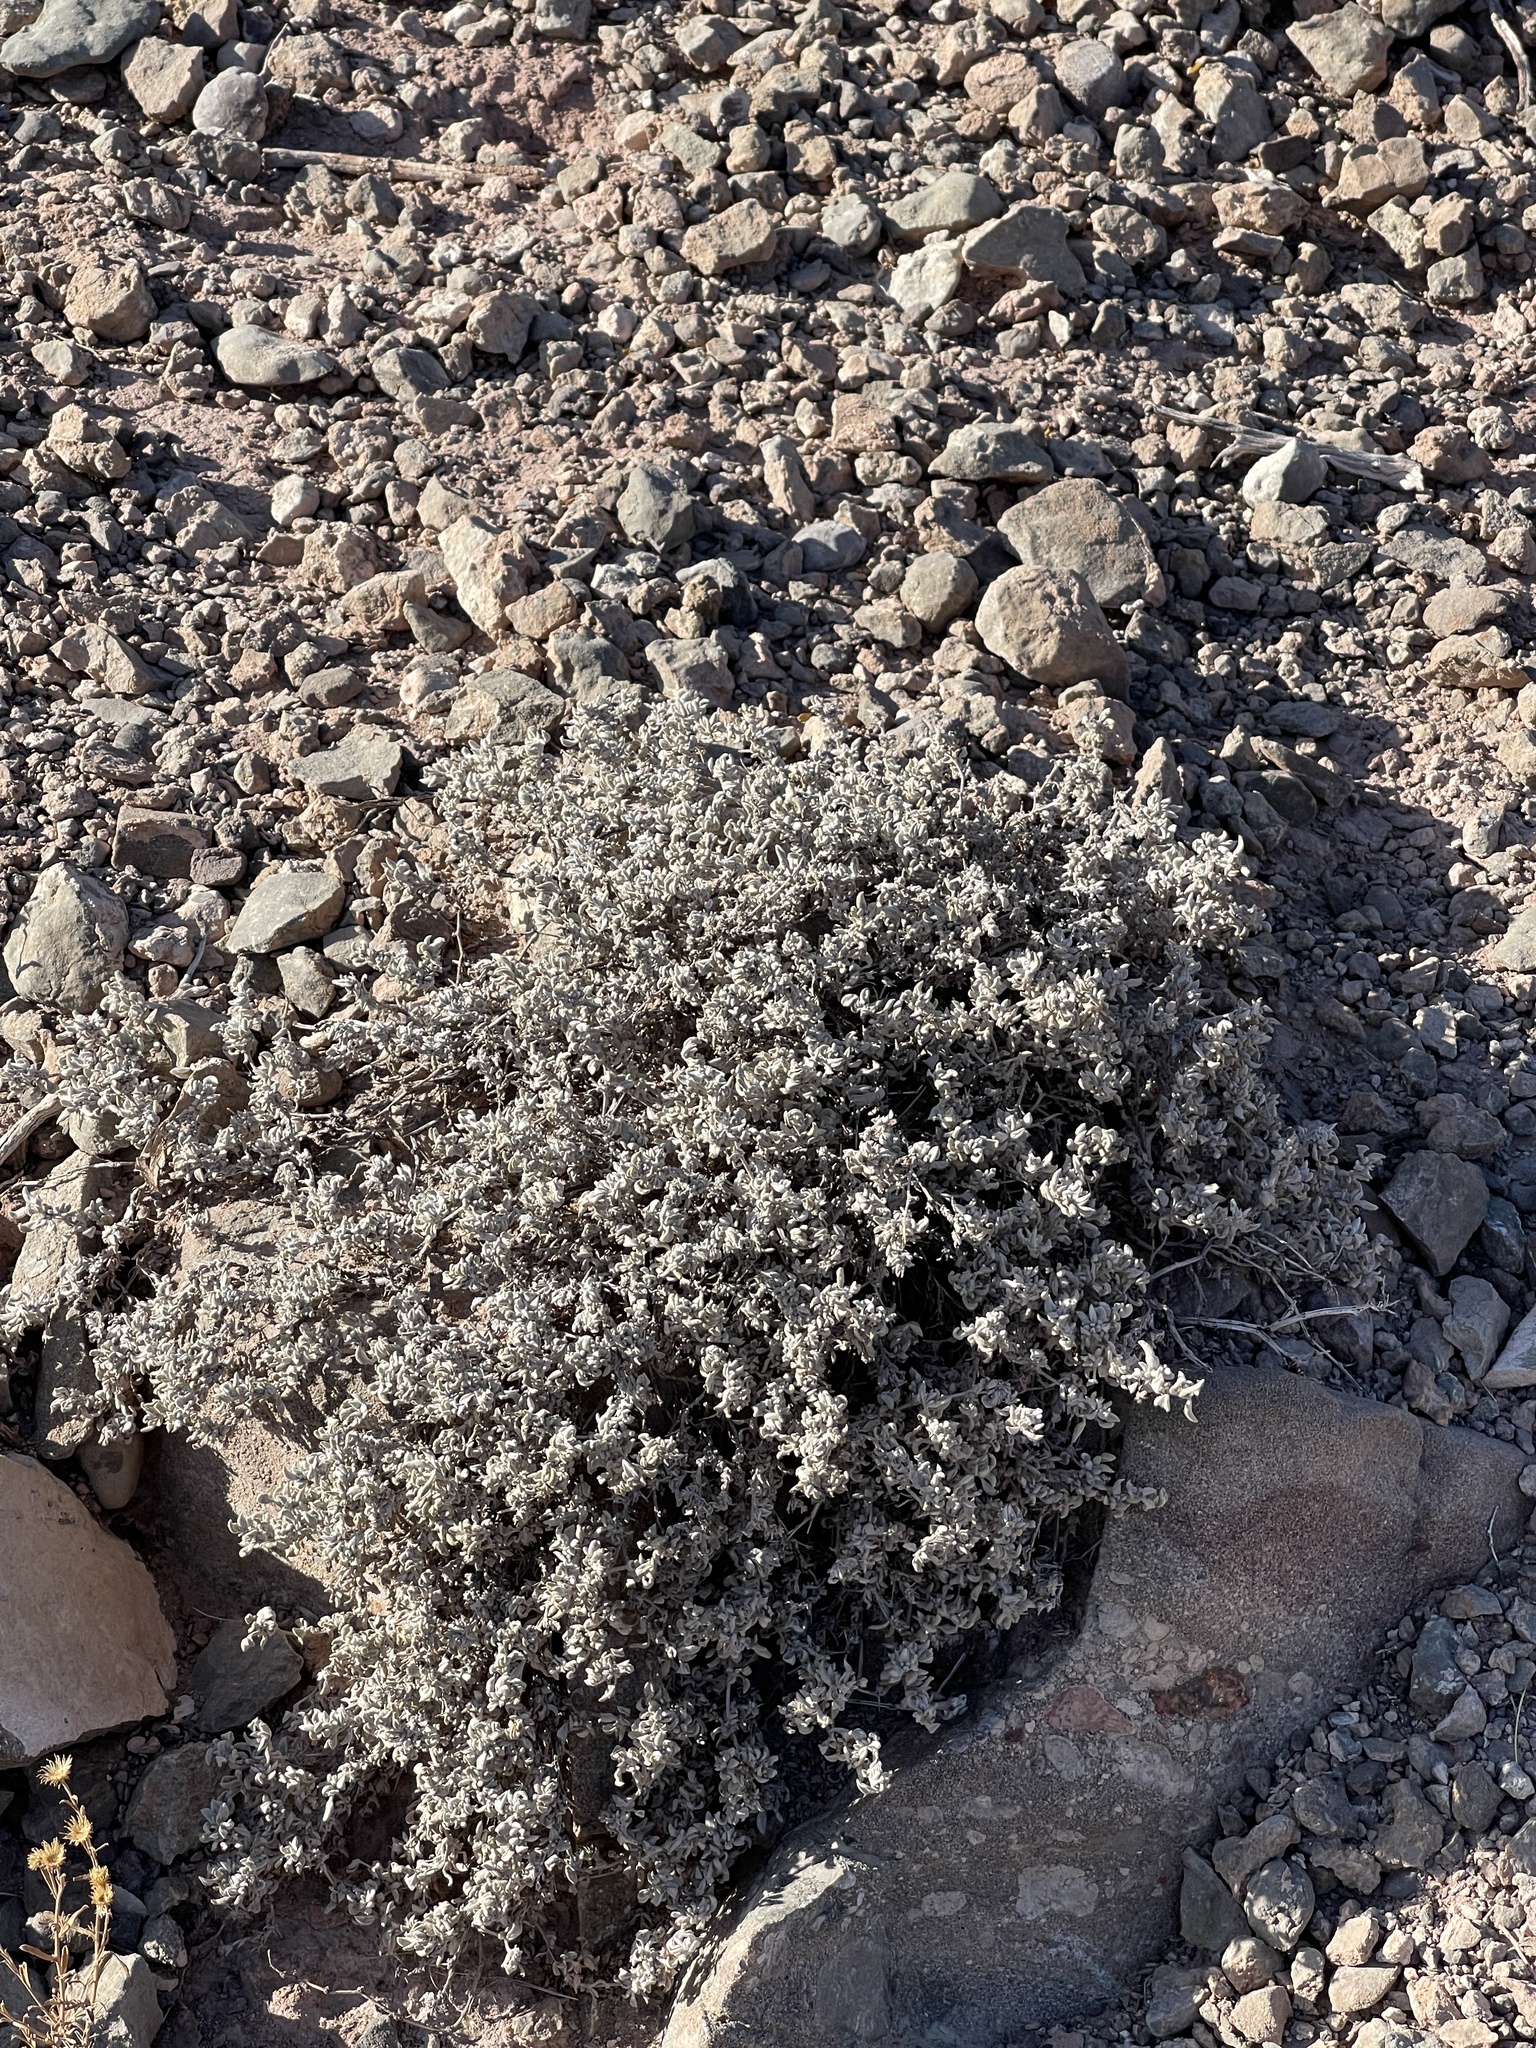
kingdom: Plantae
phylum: Tracheophyta
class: Magnoliopsida
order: Boraginales
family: Ehretiaceae
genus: Tiquilia
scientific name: Tiquilia canescens
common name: Hairy tiquilia
